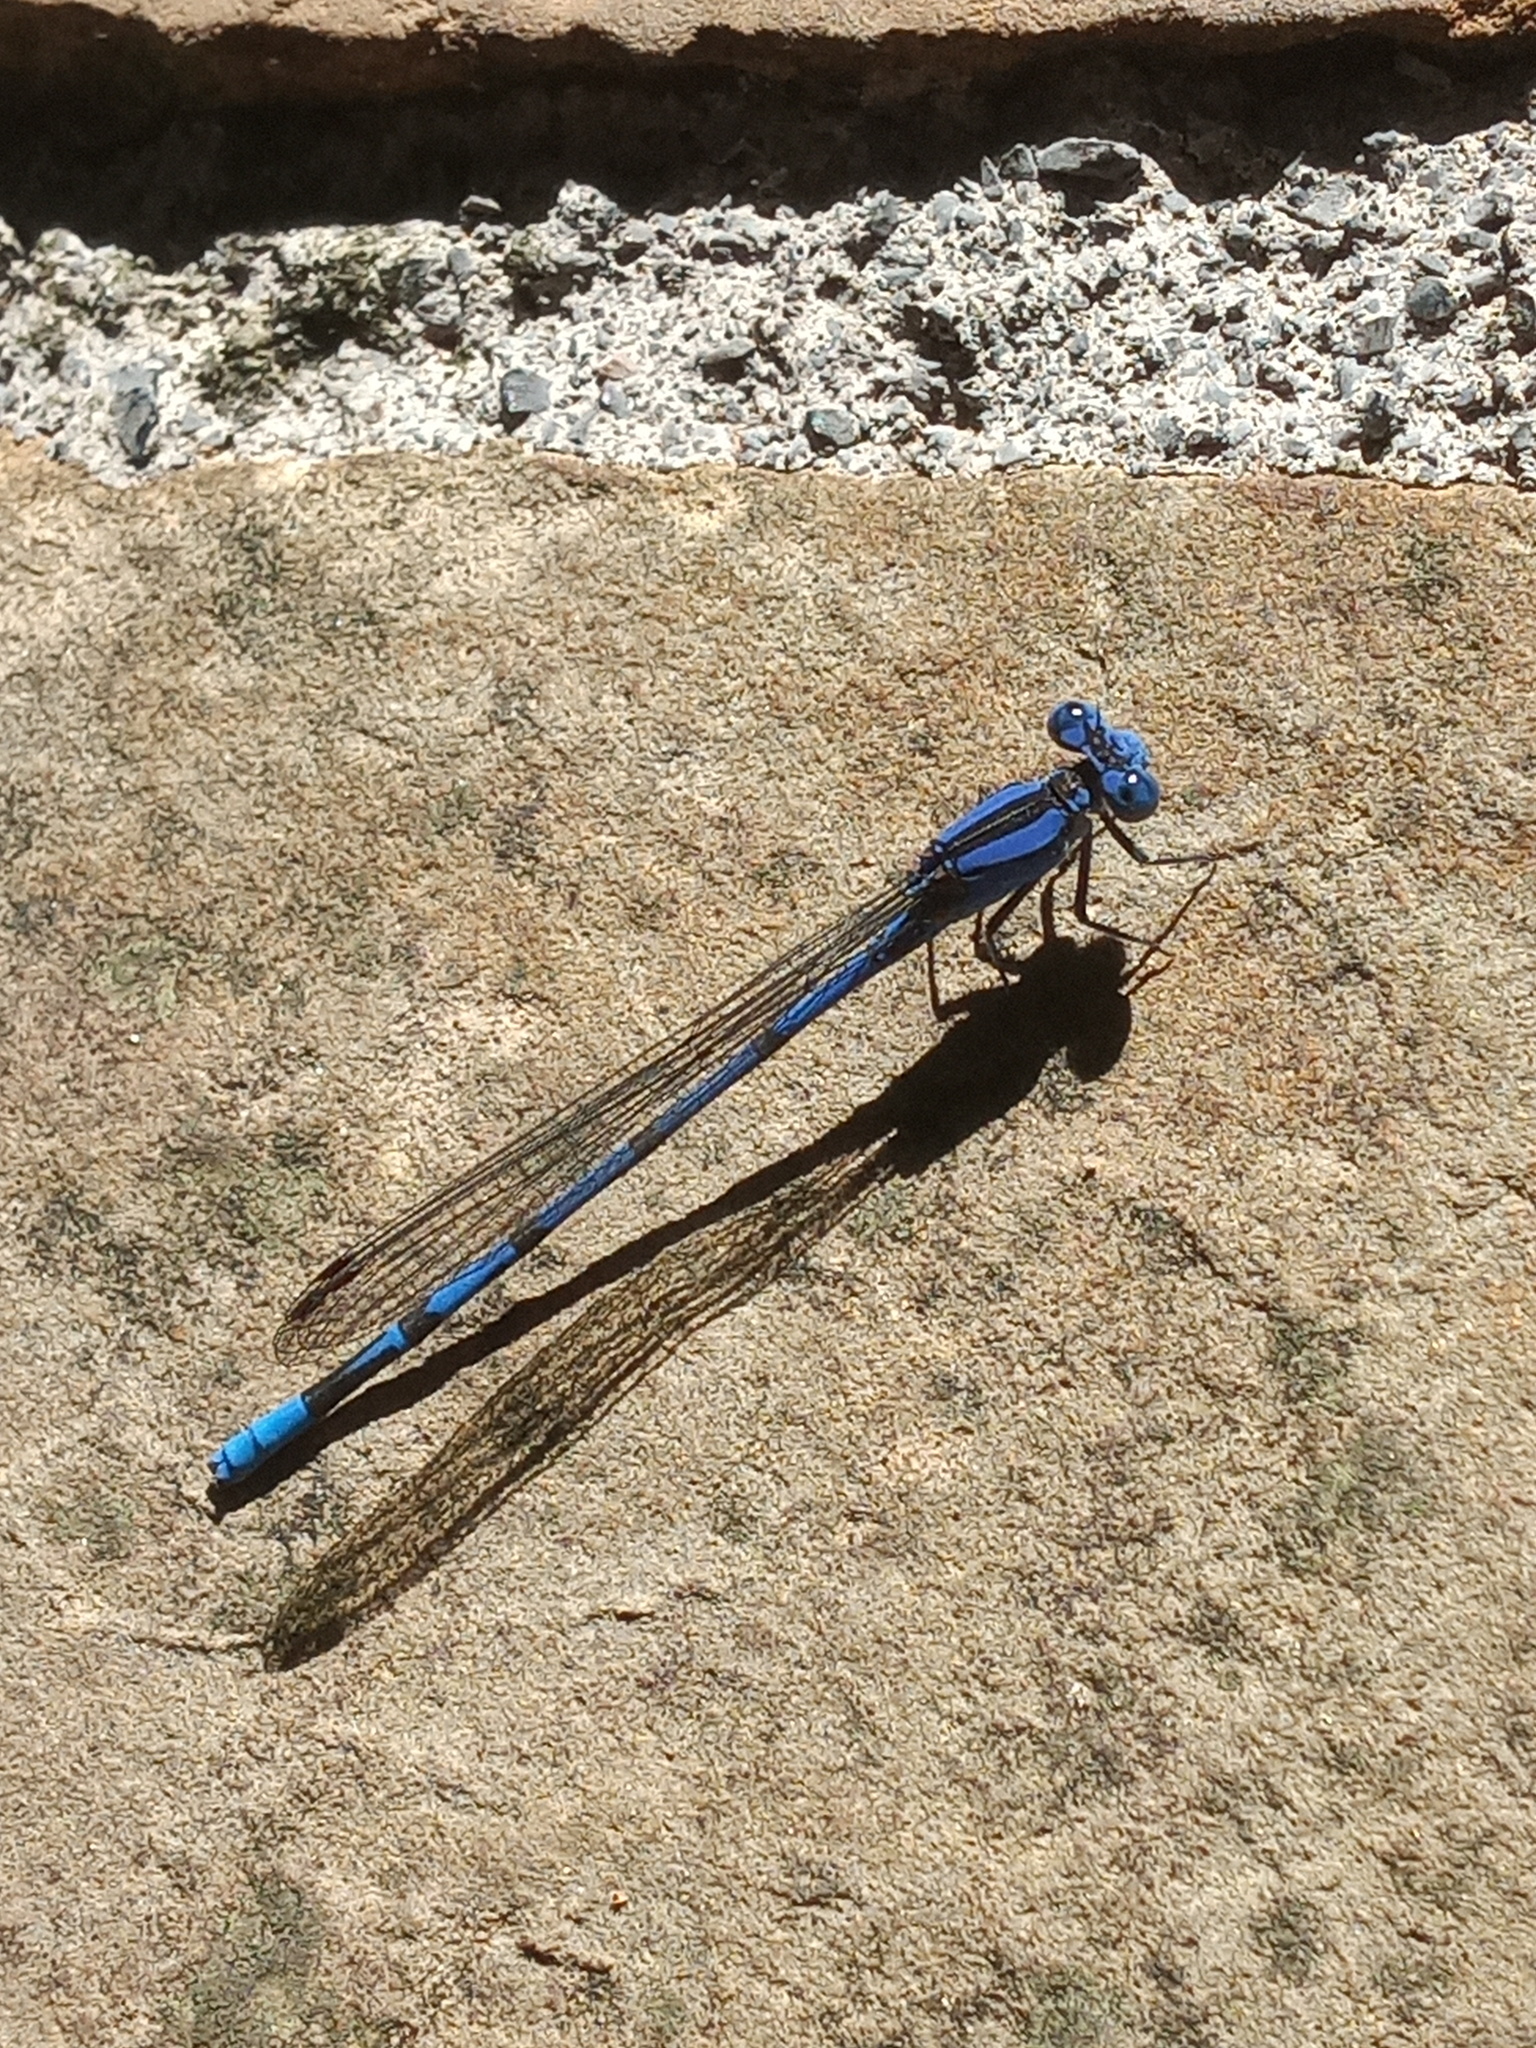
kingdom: Animalia
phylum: Arthropoda
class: Insecta
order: Odonata
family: Coenagrionidae
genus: Argia
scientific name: Argia extranea
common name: Spine-tipped dancer
